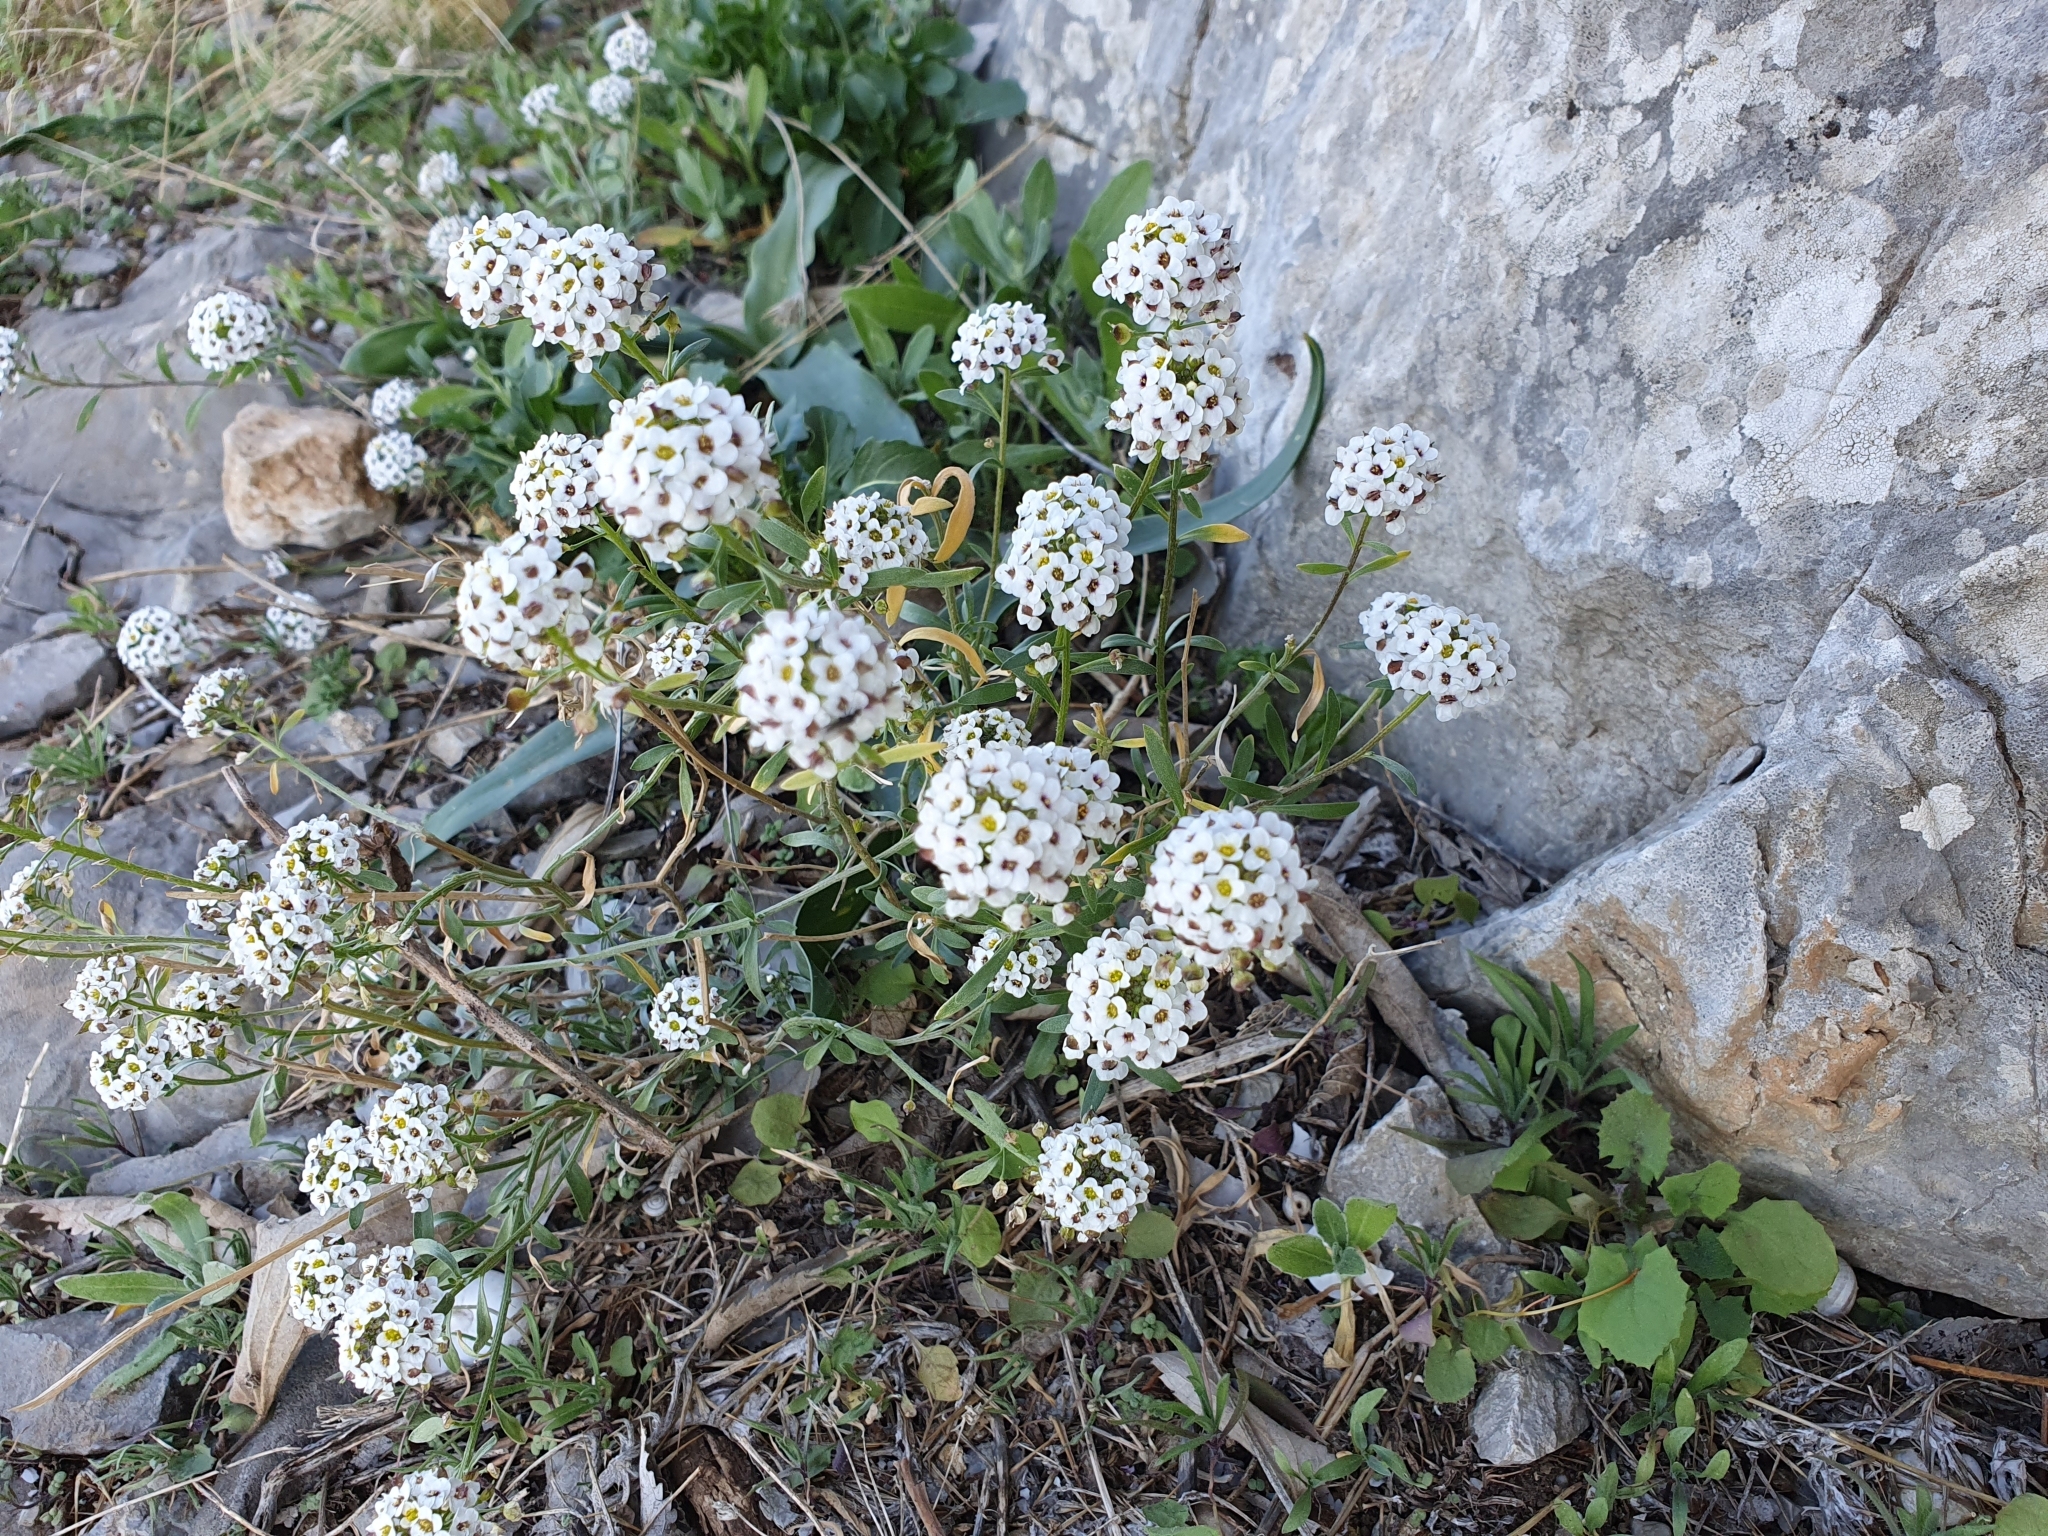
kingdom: Plantae
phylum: Tracheophyta
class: Magnoliopsida
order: Brassicales
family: Brassicaceae
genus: Lobularia
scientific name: Lobularia maritima
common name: Sweet alison
